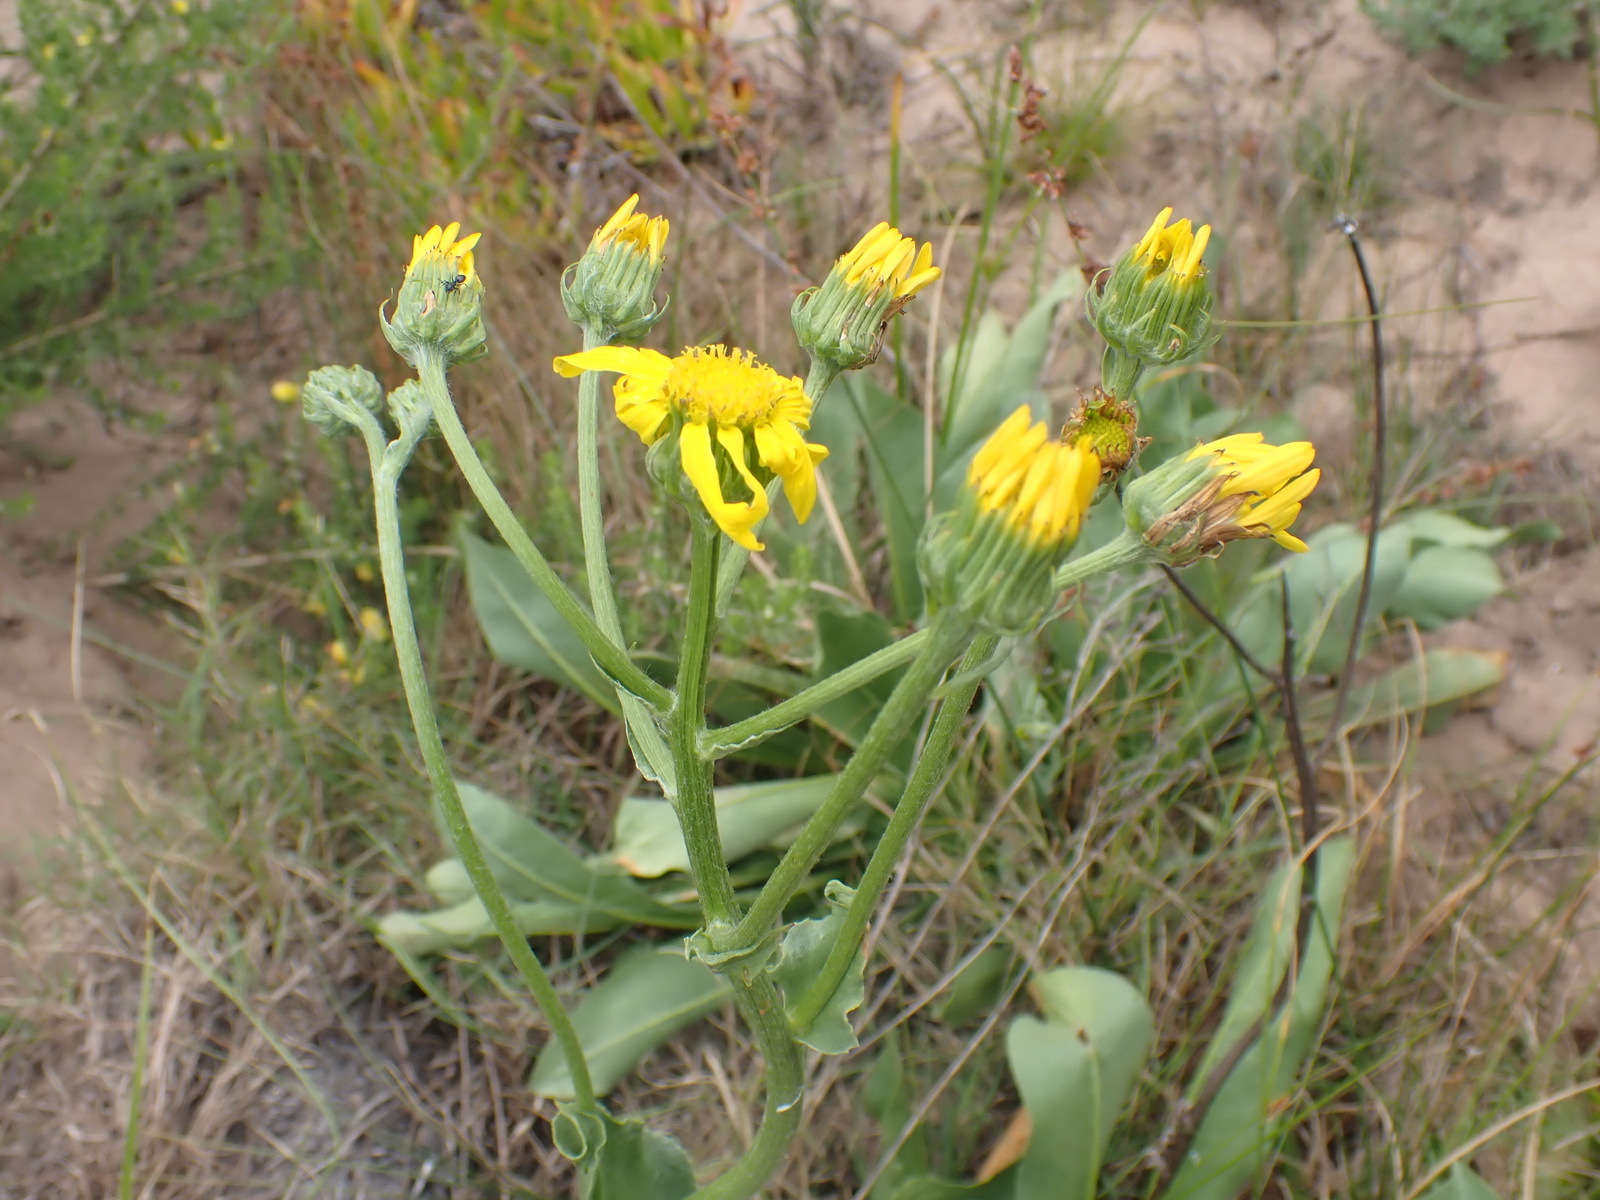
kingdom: Plantae
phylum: Tracheophyta
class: Magnoliopsida
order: Asterales
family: Asteraceae
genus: Senecio
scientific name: Senecio coronatus
